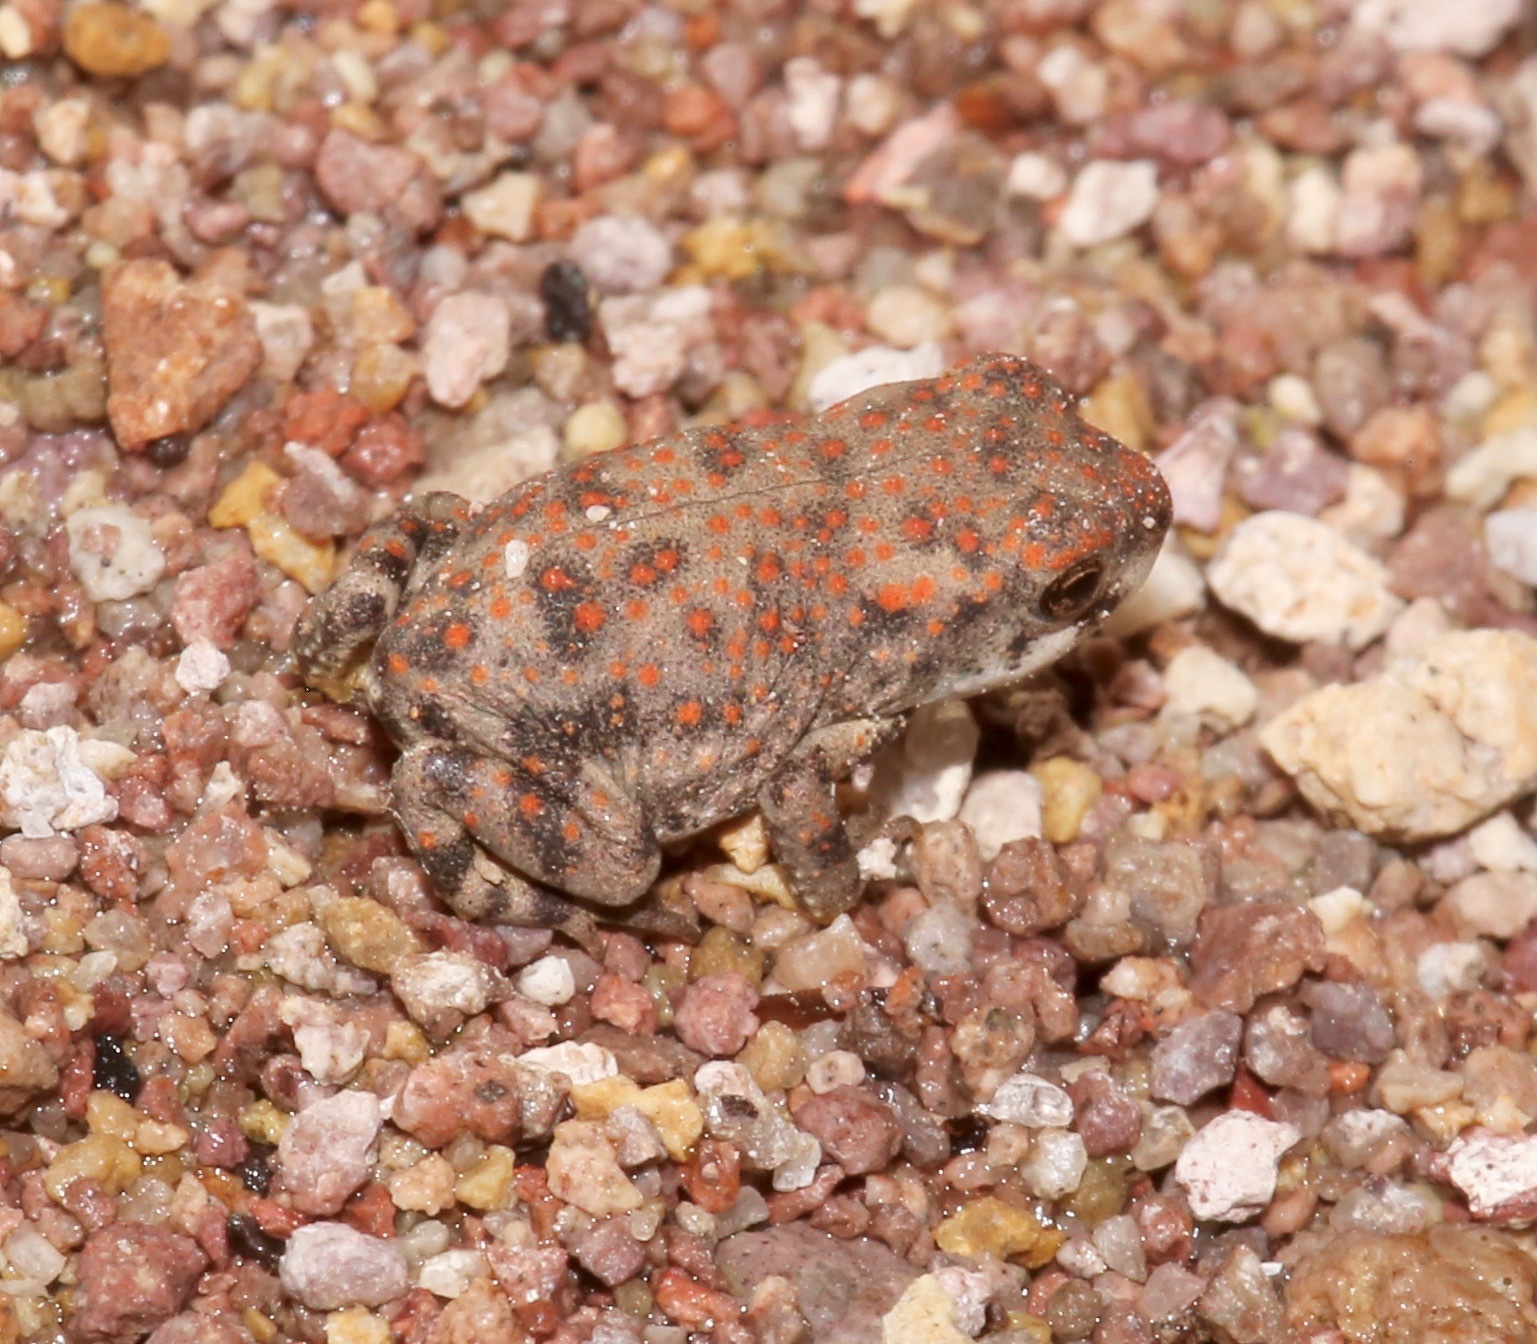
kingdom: Animalia
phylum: Chordata
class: Amphibia
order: Anura
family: Bufonidae
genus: Anaxyrus
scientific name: Anaxyrus punctatus
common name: Red-spotted toad
